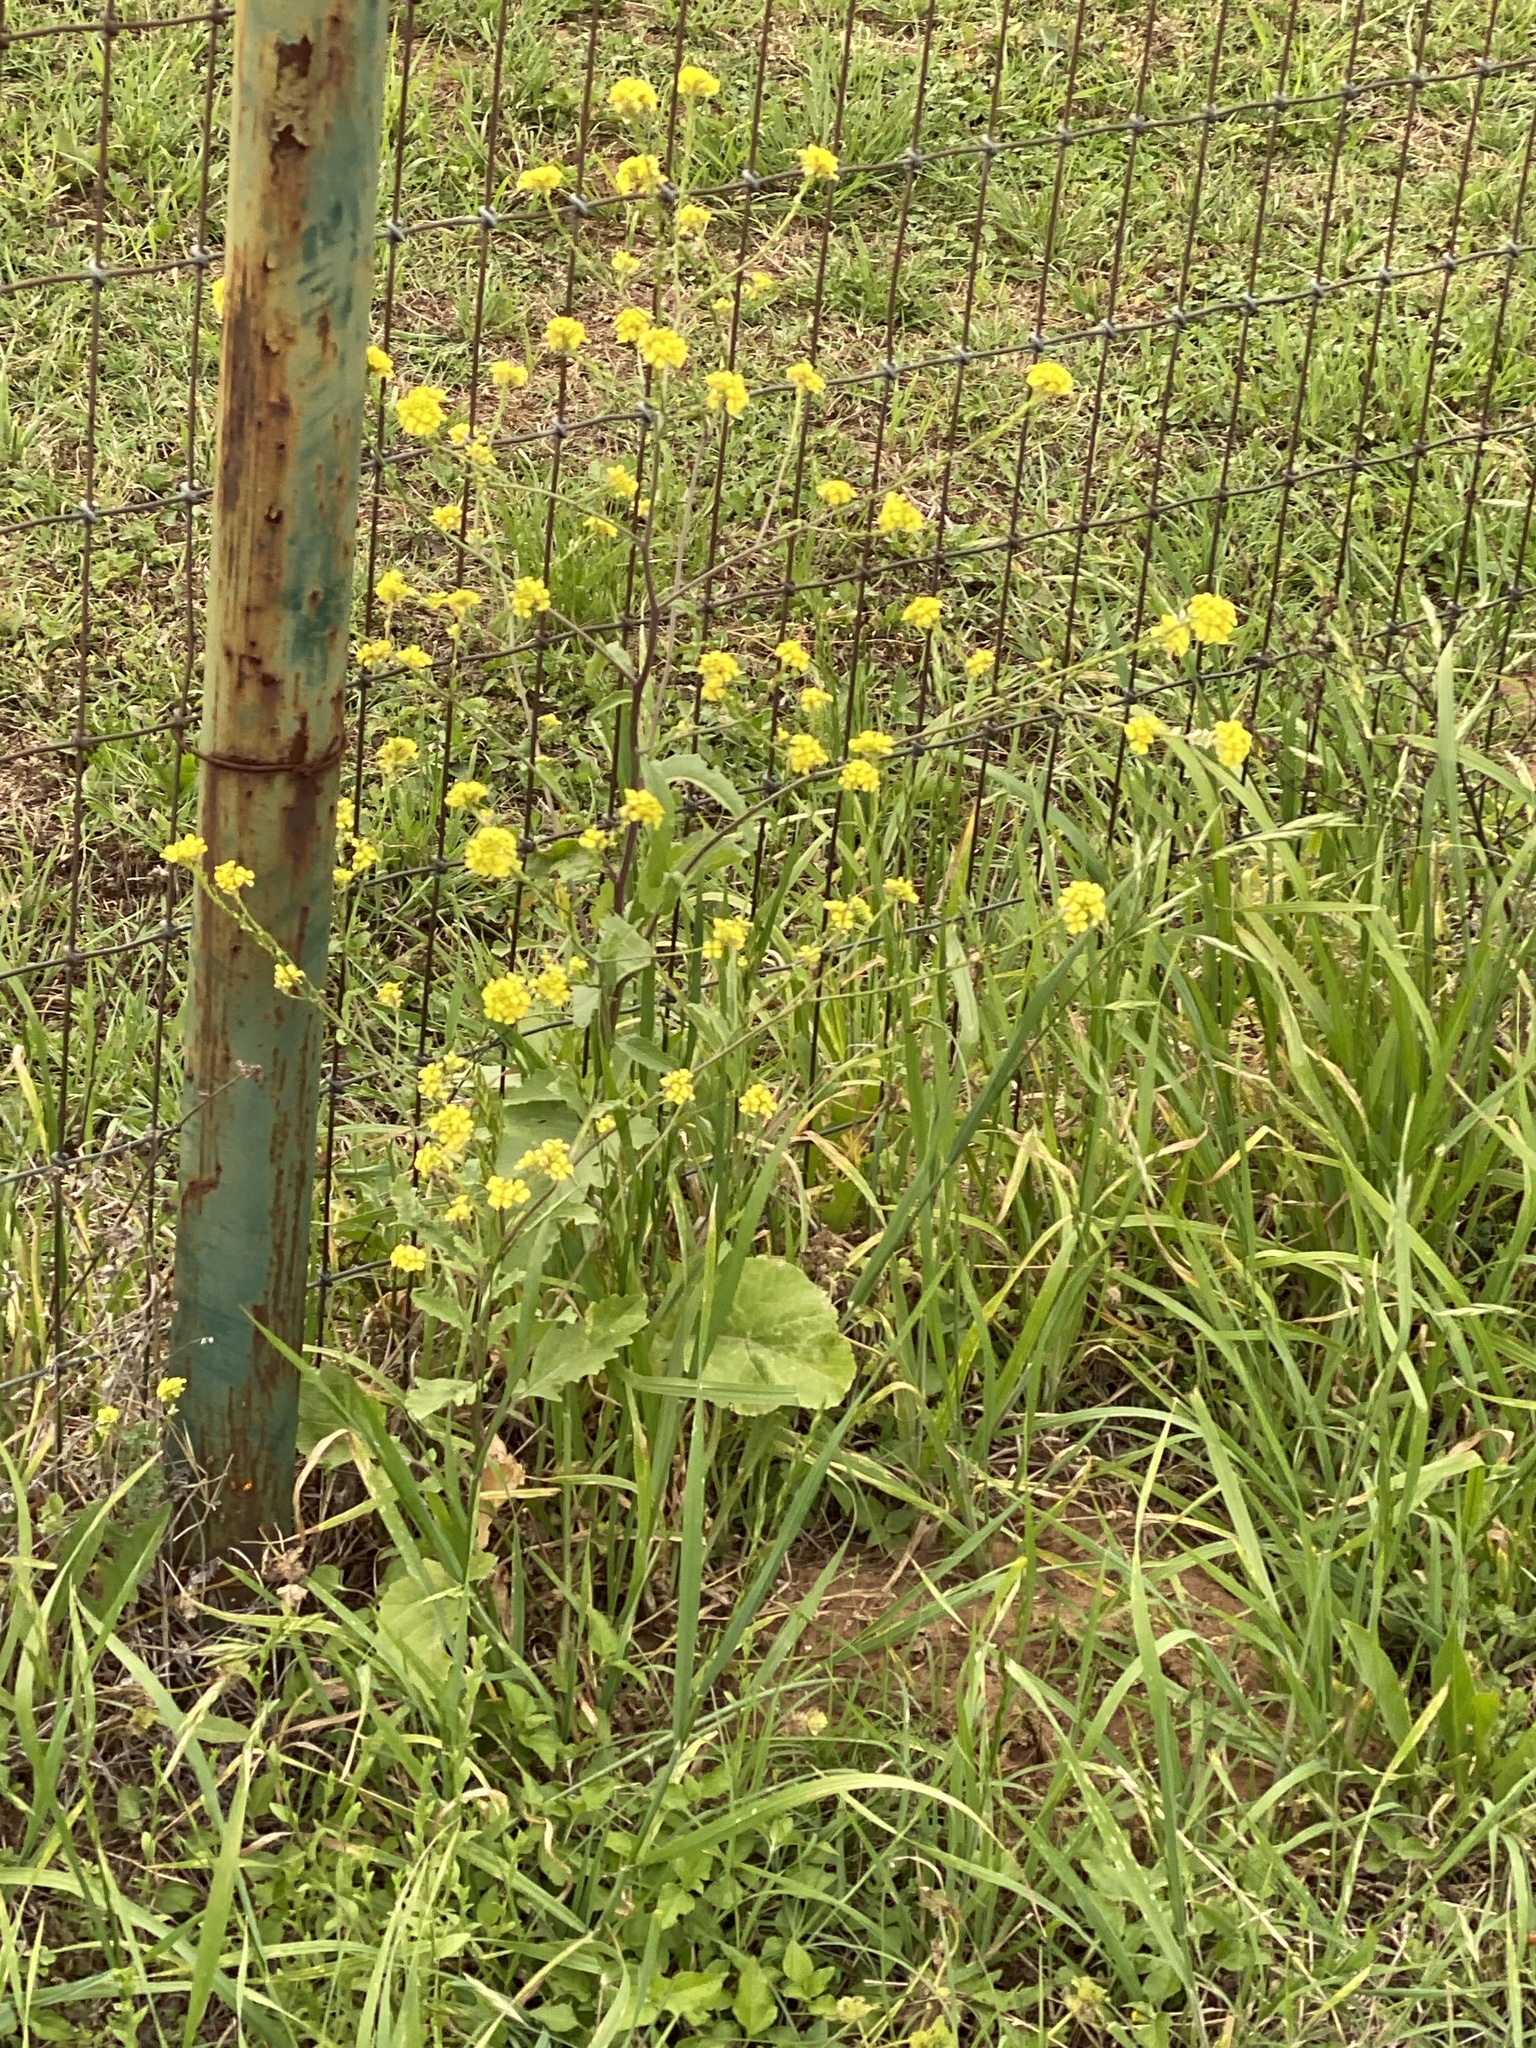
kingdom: Plantae
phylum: Tracheophyta
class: Magnoliopsida
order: Brassicales
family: Brassicaceae
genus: Rapistrum
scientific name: Rapistrum rugosum
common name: Annual bastardcabbage
